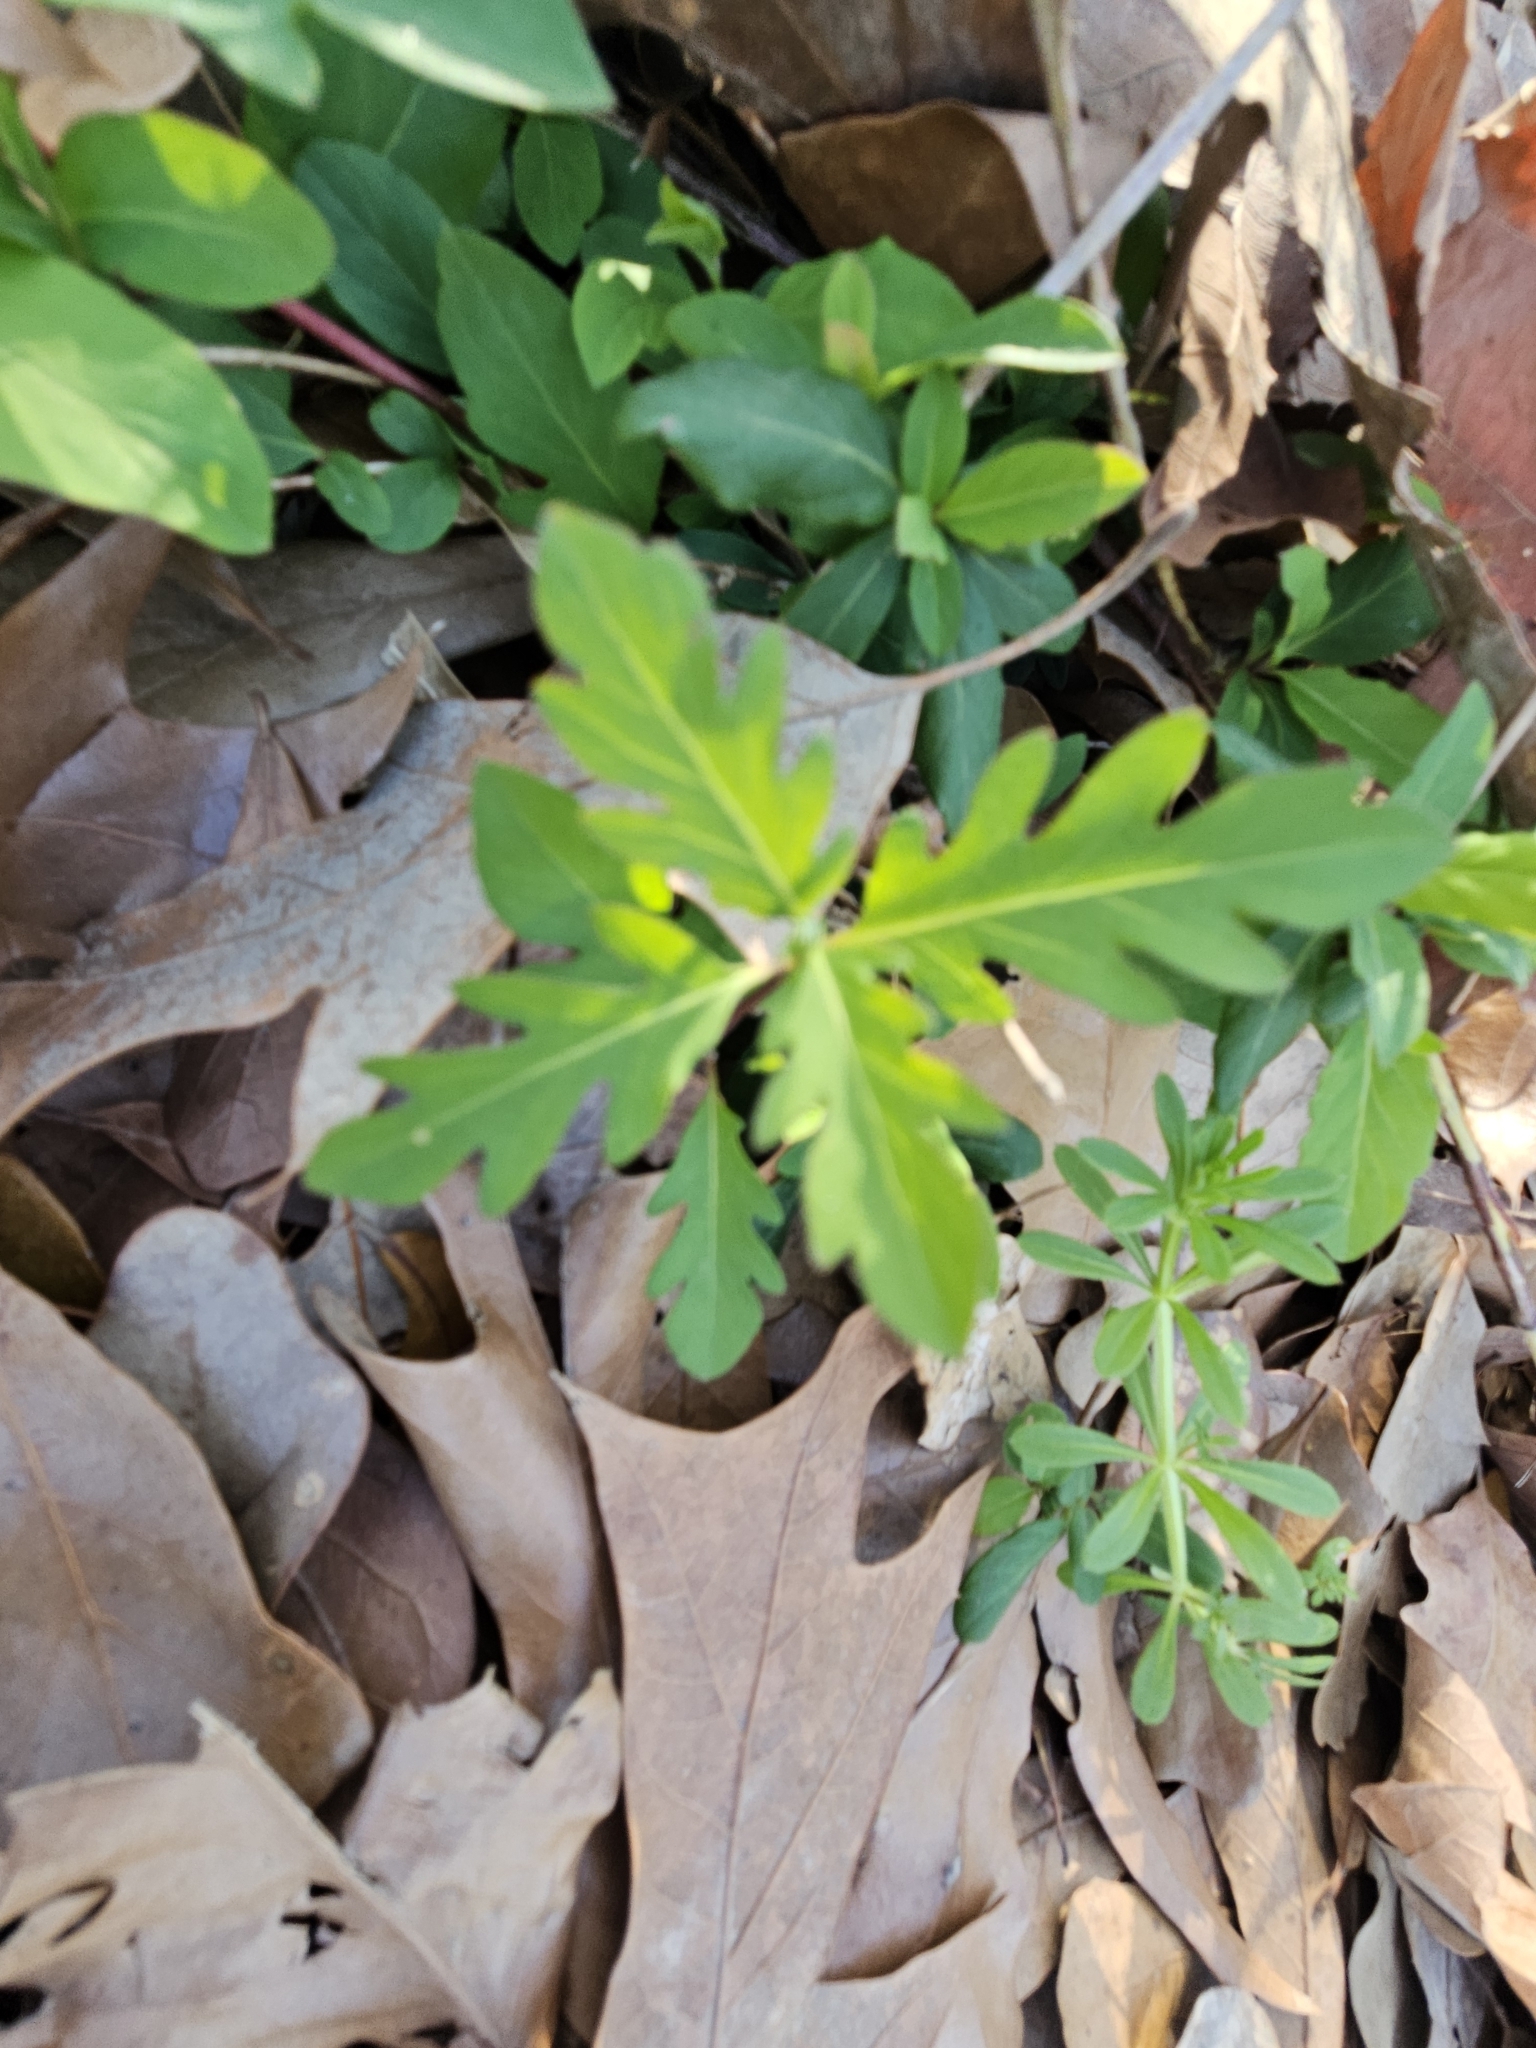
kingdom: Plantae
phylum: Tracheophyta
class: Magnoliopsida
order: Dipsacales
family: Caprifoliaceae
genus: Lonicera
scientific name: Lonicera japonica
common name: Japanese honeysuckle
